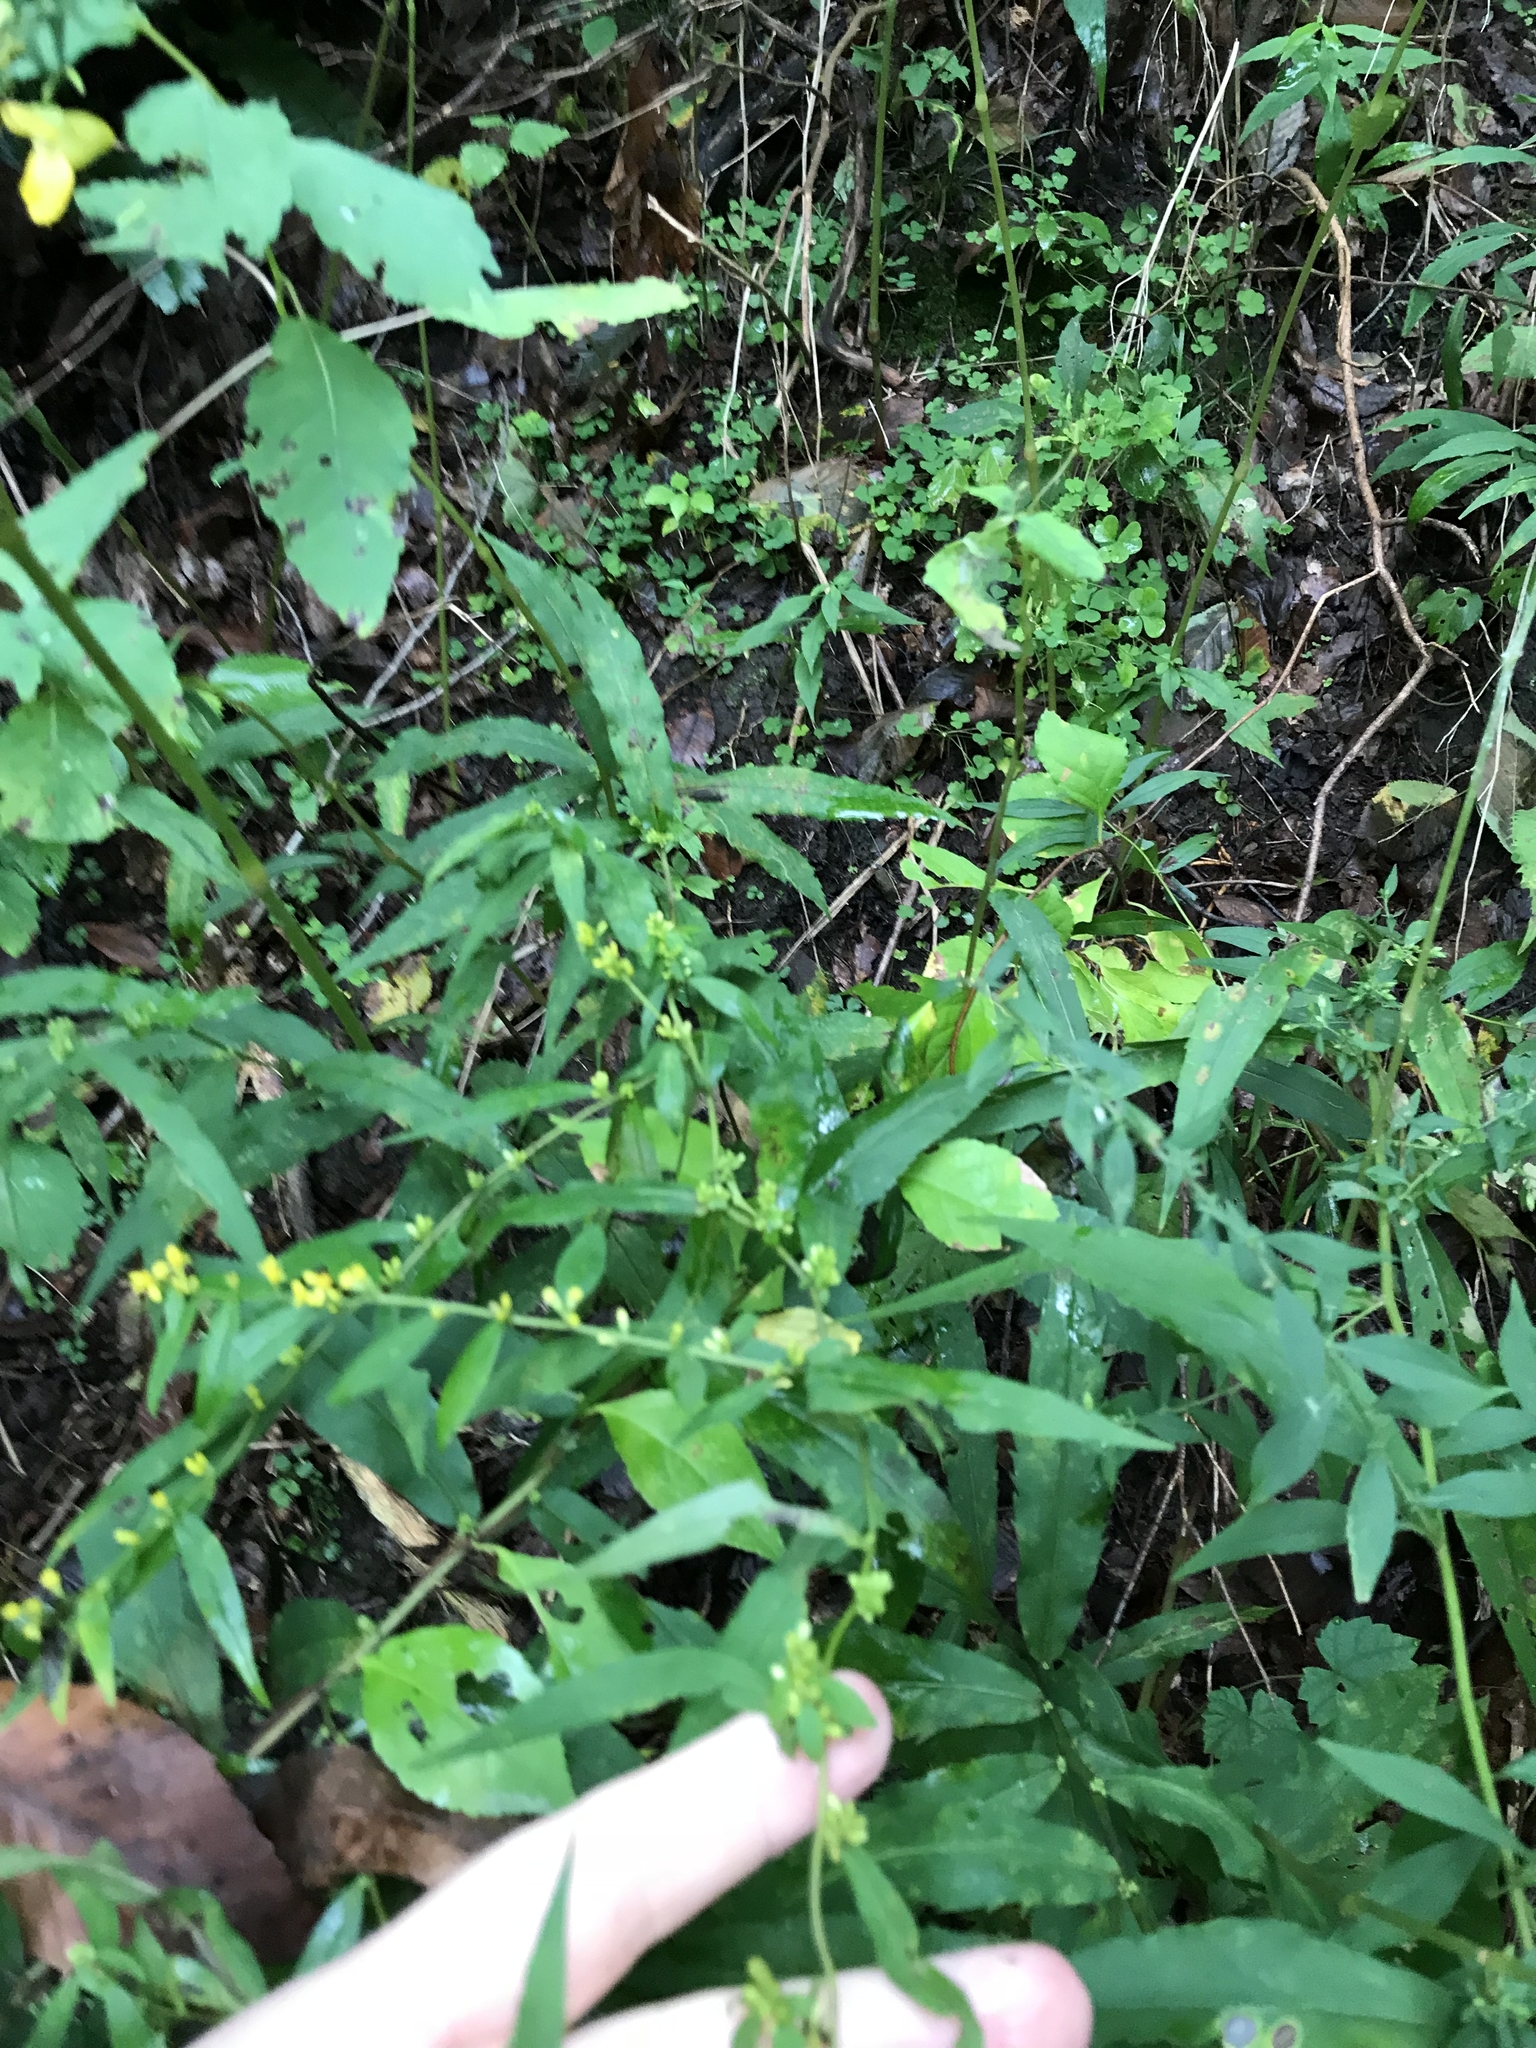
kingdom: Plantae
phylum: Tracheophyta
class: Magnoliopsida
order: Asterales
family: Asteraceae
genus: Solidago
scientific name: Solidago caesia
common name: Woodland goldenrod
